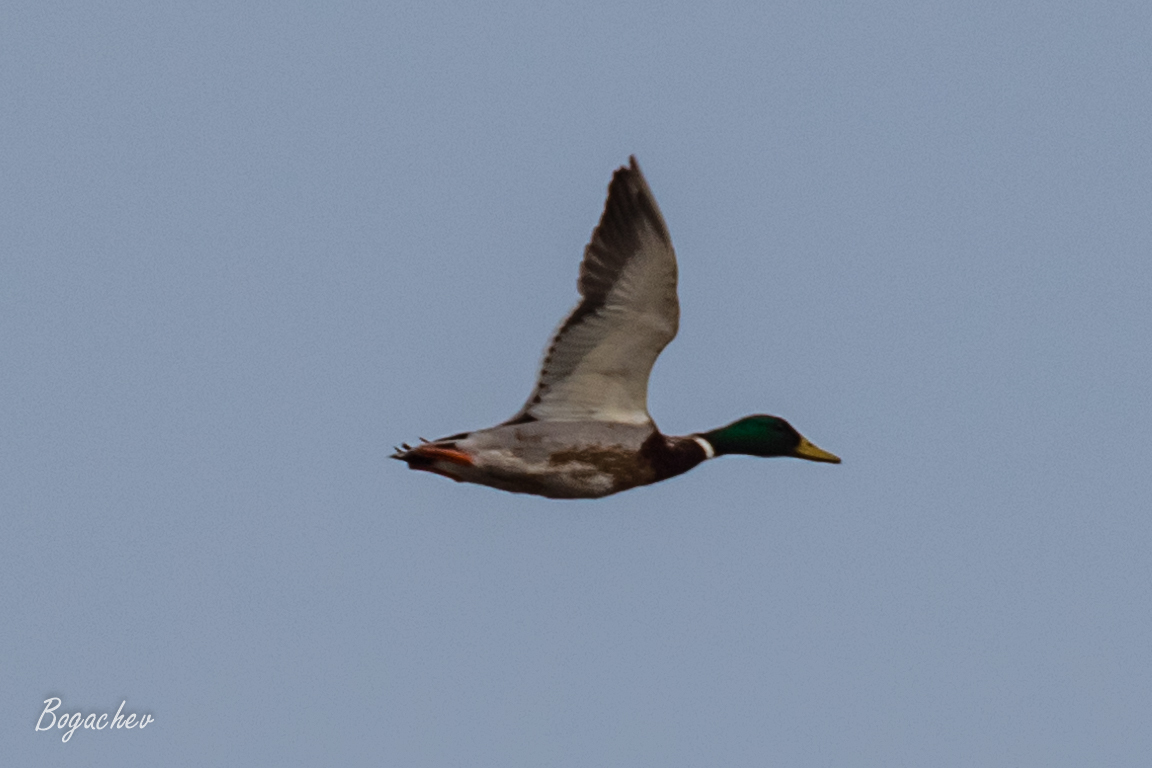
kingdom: Animalia
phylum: Chordata
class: Aves
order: Anseriformes
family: Anatidae
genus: Anas
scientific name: Anas platyrhynchos
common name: Mallard
